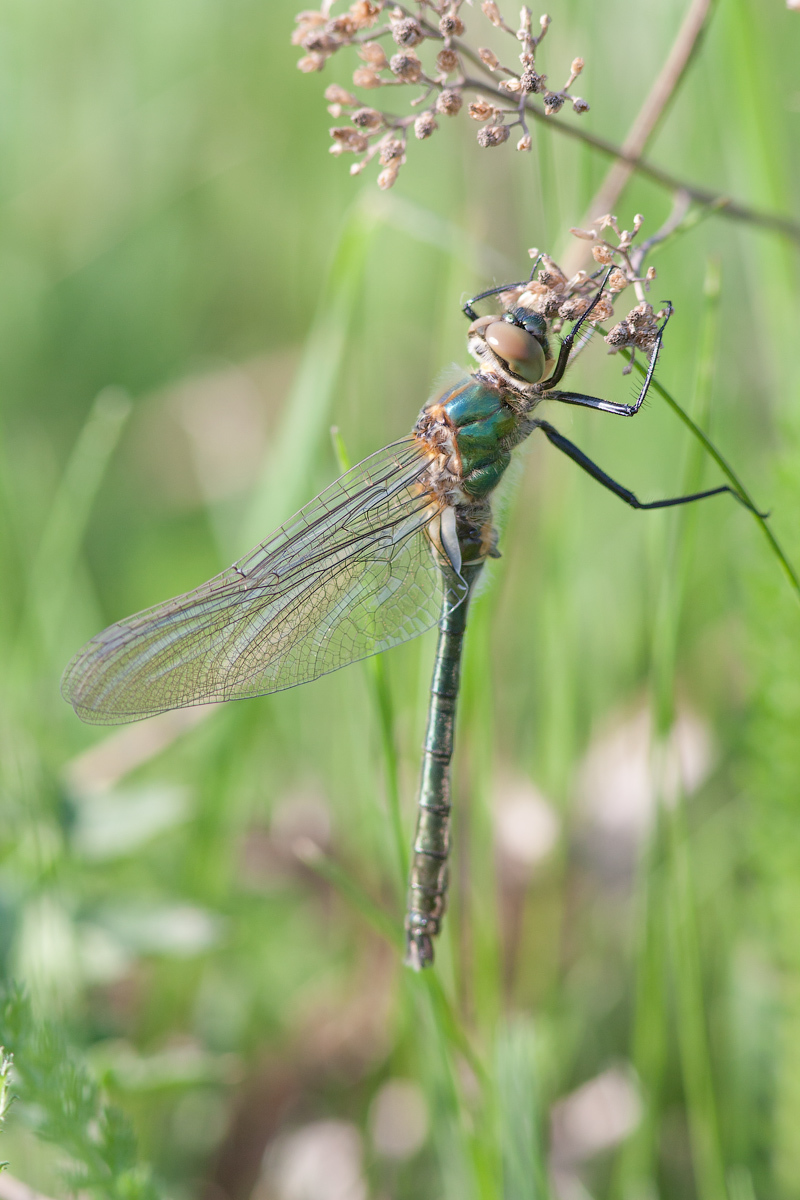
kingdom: Animalia
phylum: Arthropoda
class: Insecta
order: Odonata
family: Corduliidae
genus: Cordulia
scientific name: Cordulia aenea
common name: Downy emerald
